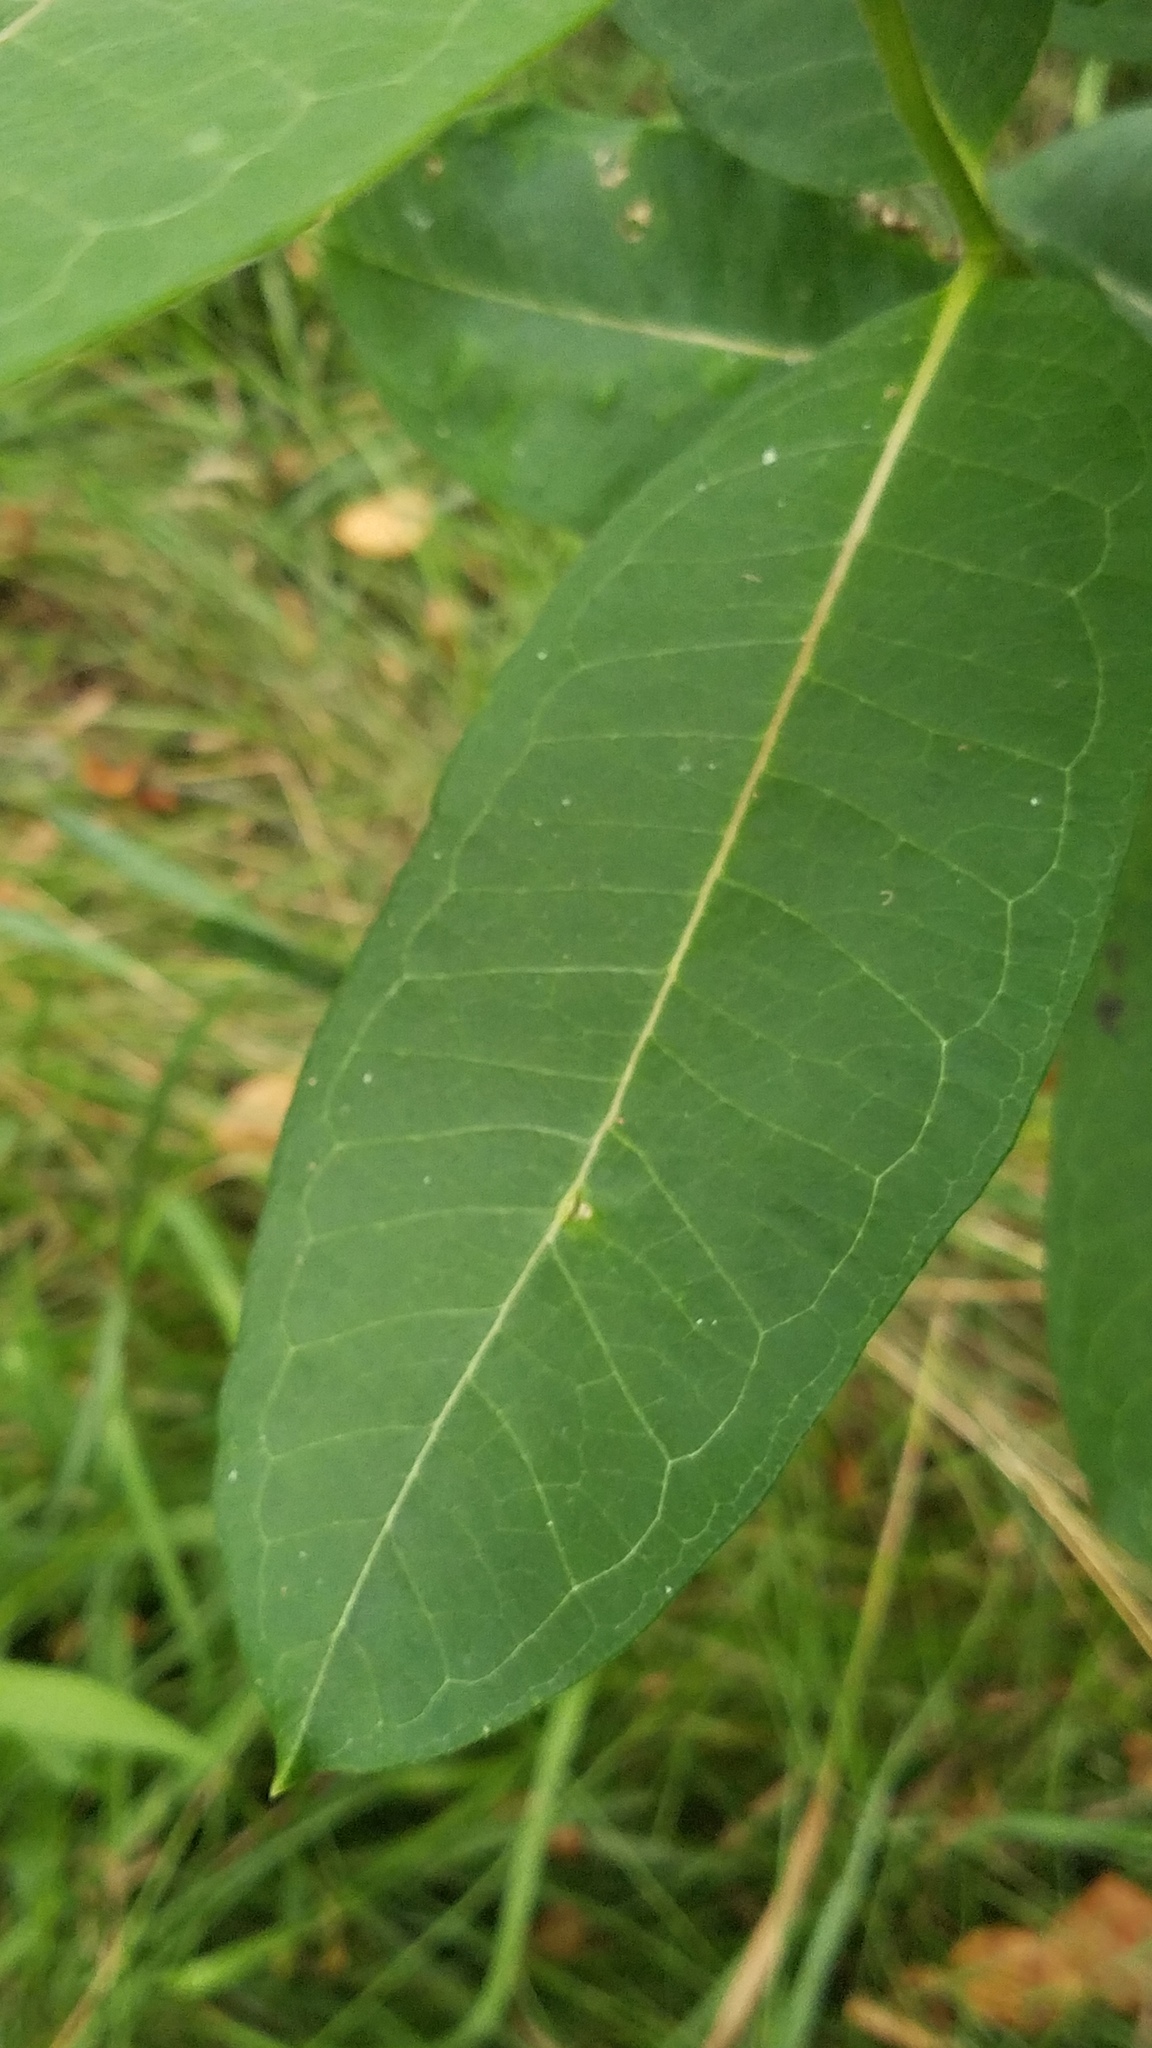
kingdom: Plantae
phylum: Tracheophyta
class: Magnoliopsida
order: Gentianales
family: Apocynaceae
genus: Asclepias
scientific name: Asclepias syriaca
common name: Common milkweed
